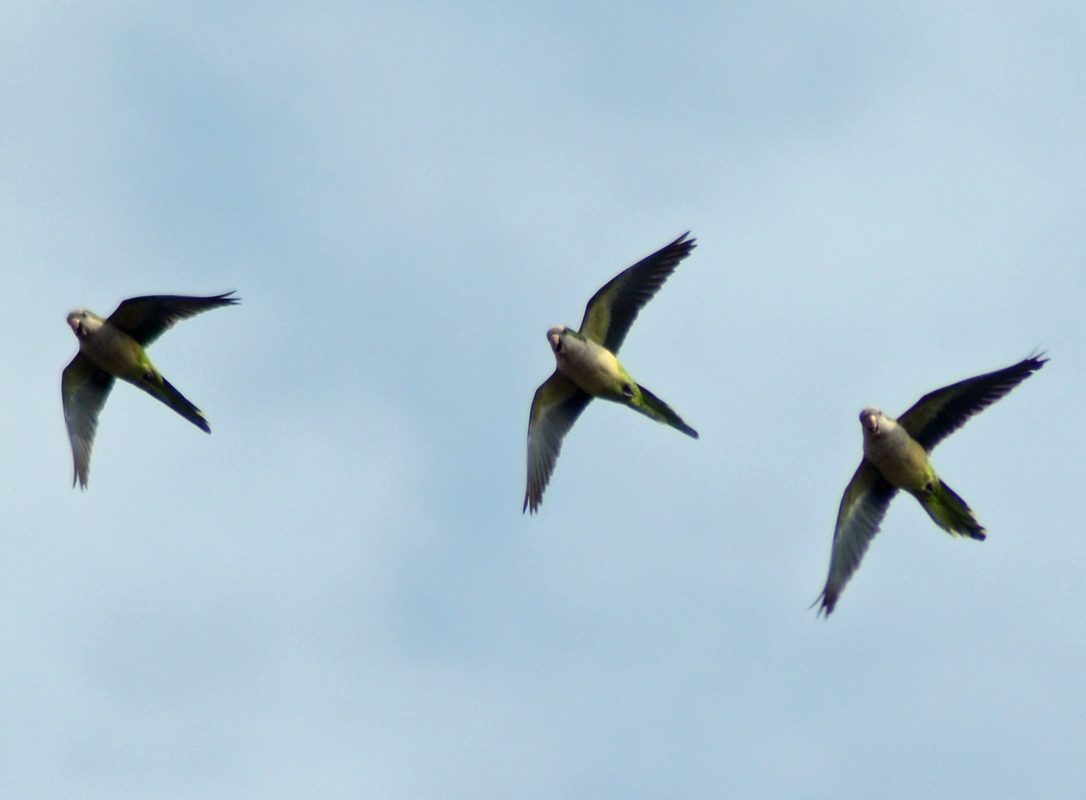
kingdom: Animalia
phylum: Chordata
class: Aves
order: Psittaciformes
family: Psittacidae
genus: Myiopsitta
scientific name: Myiopsitta monachus
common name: Monk parakeet
